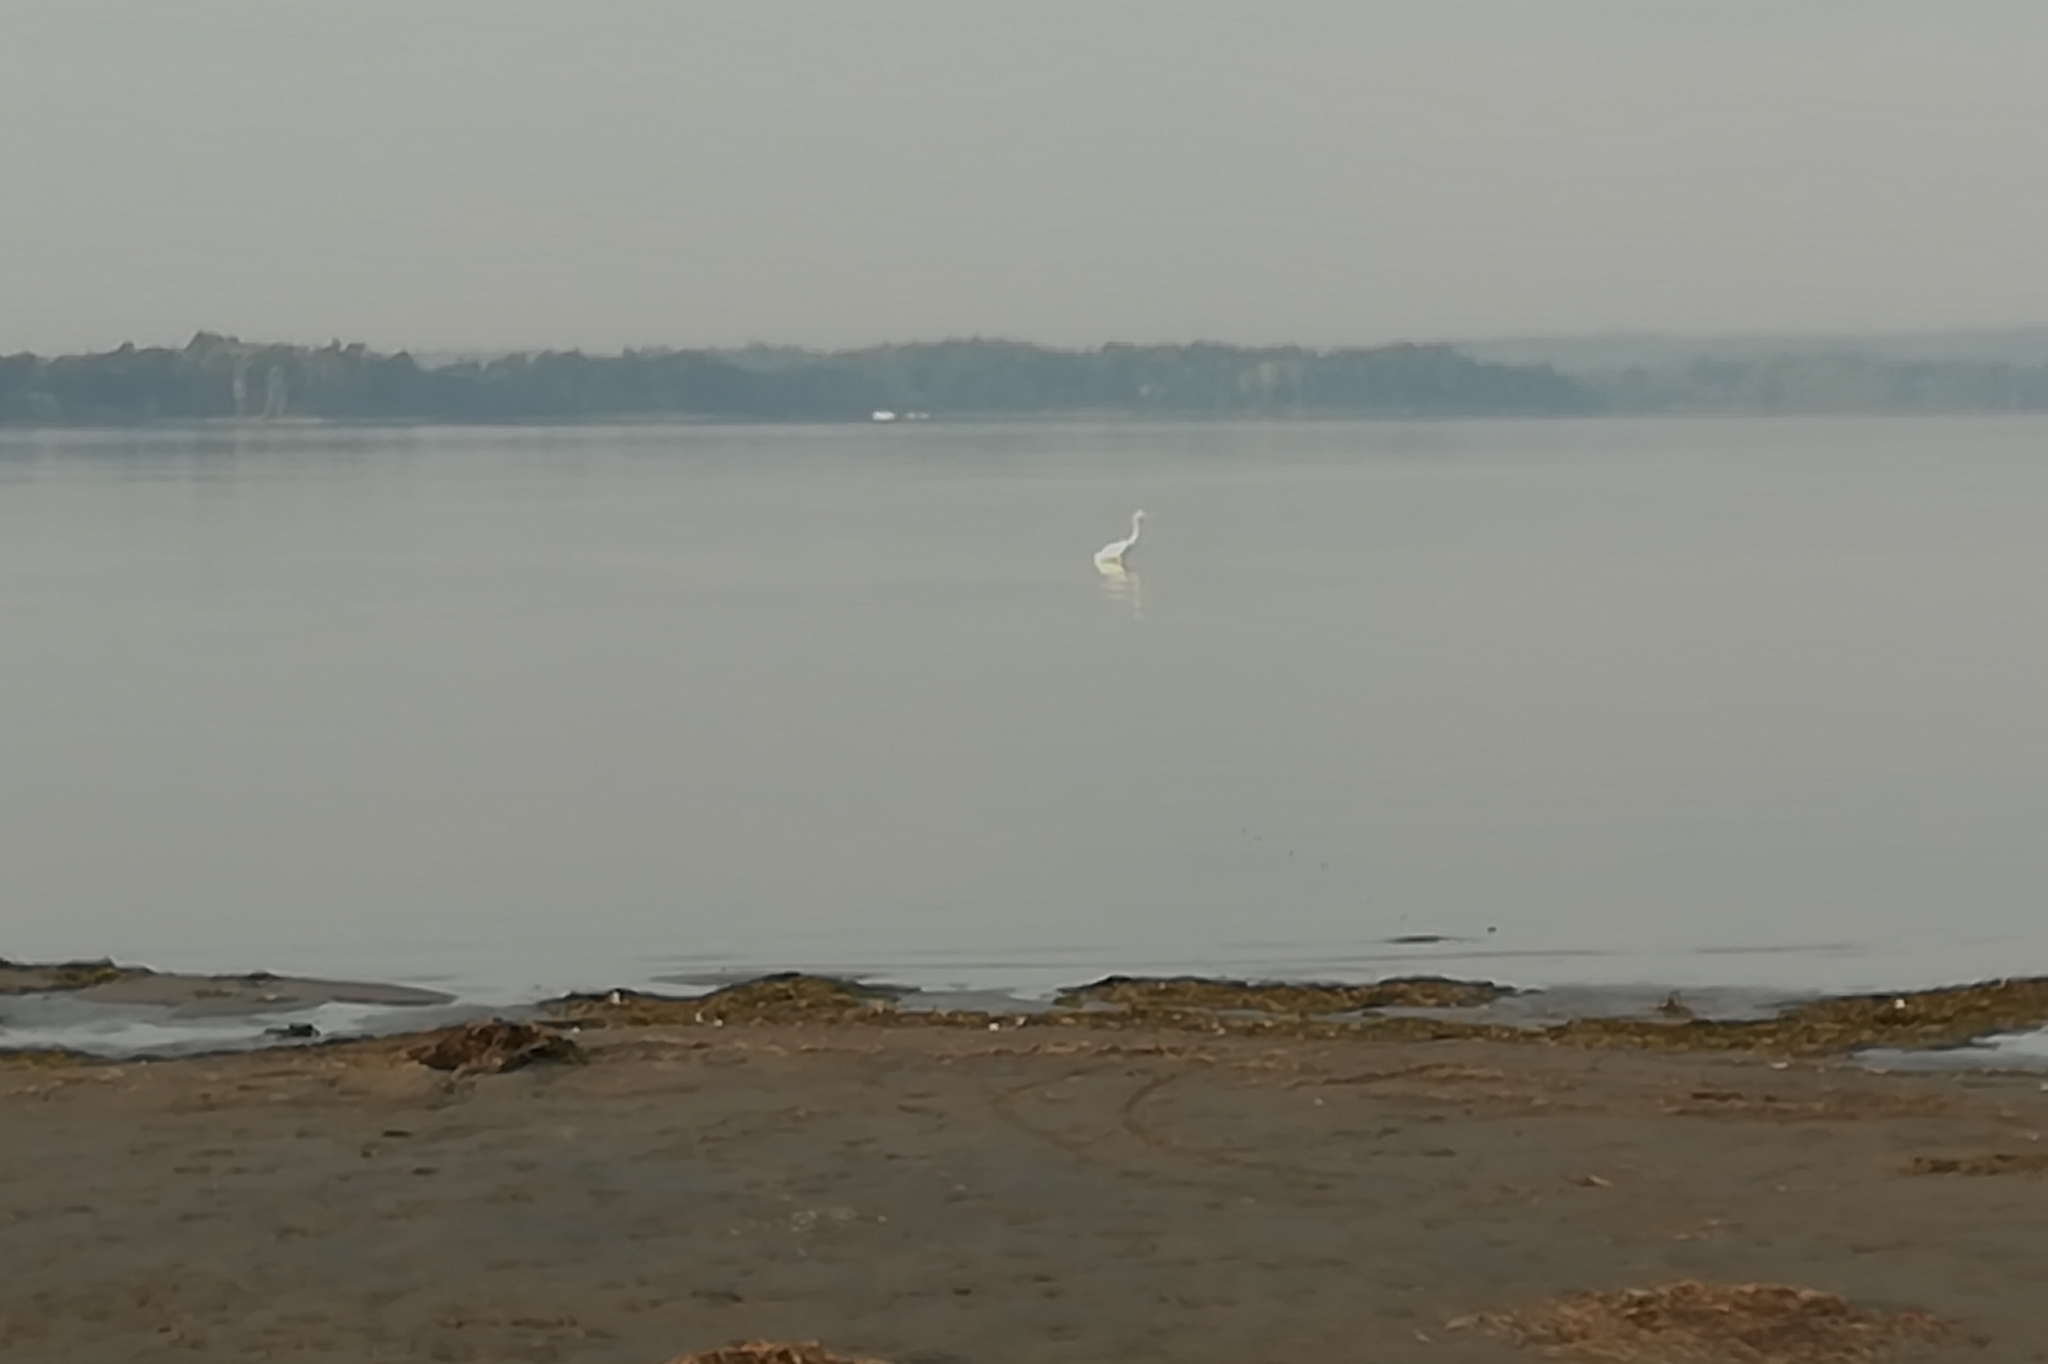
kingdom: Animalia
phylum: Chordata
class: Aves
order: Pelecaniformes
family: Ardeidae
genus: Ardea
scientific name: Ardea alba
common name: Great egret
